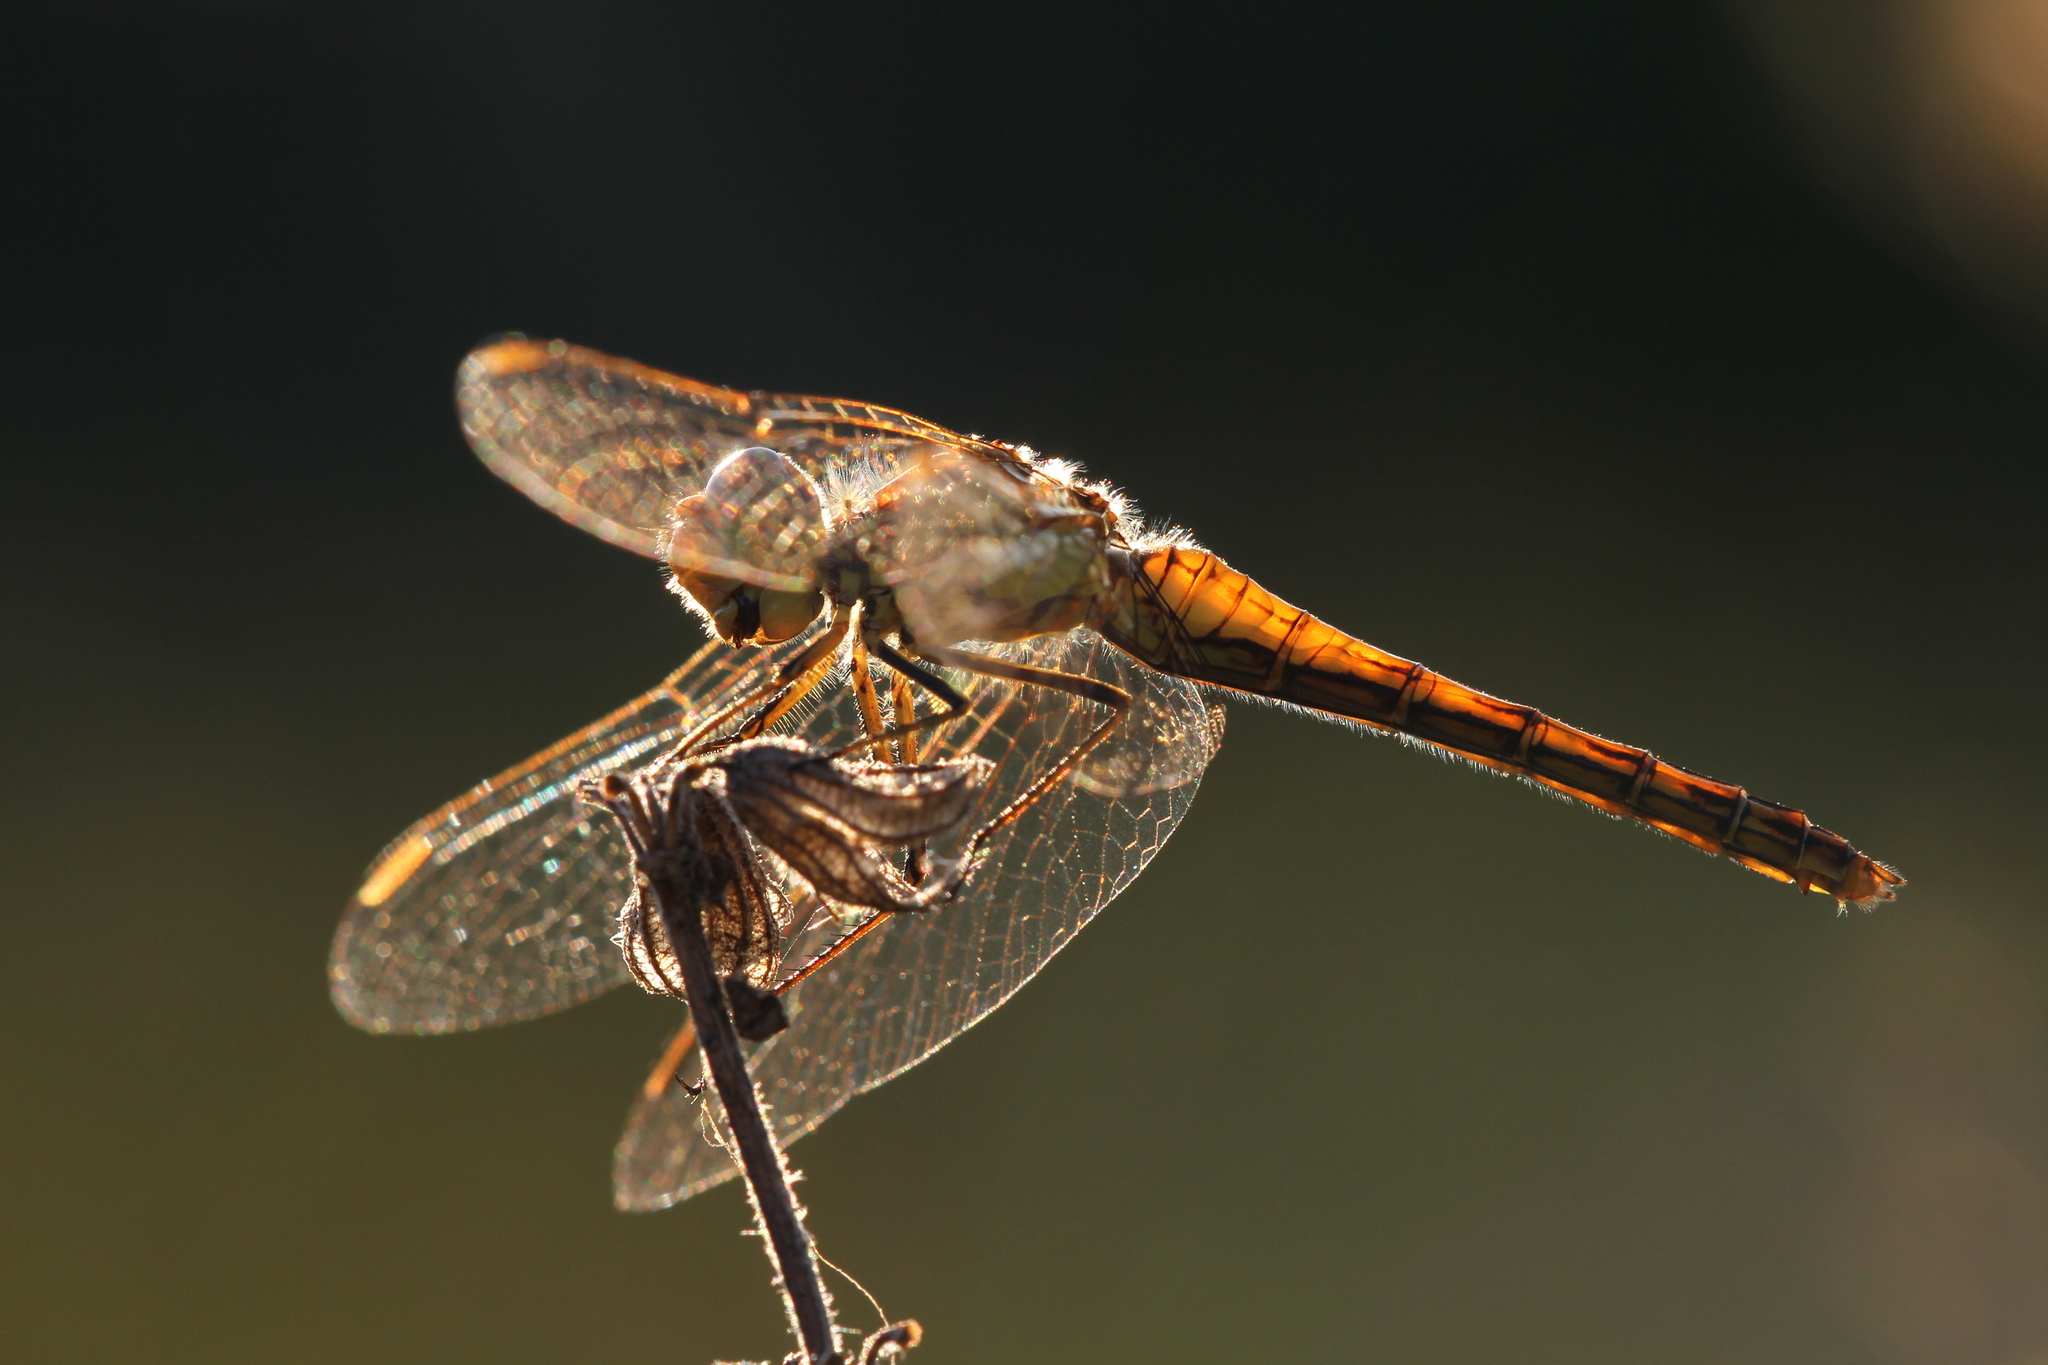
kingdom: Animalia
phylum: Arthropoda
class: Insecta
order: Odonata
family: Libellulidae
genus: Sympetrum
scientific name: Sympetrum vulgatum
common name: Vagrant darter
